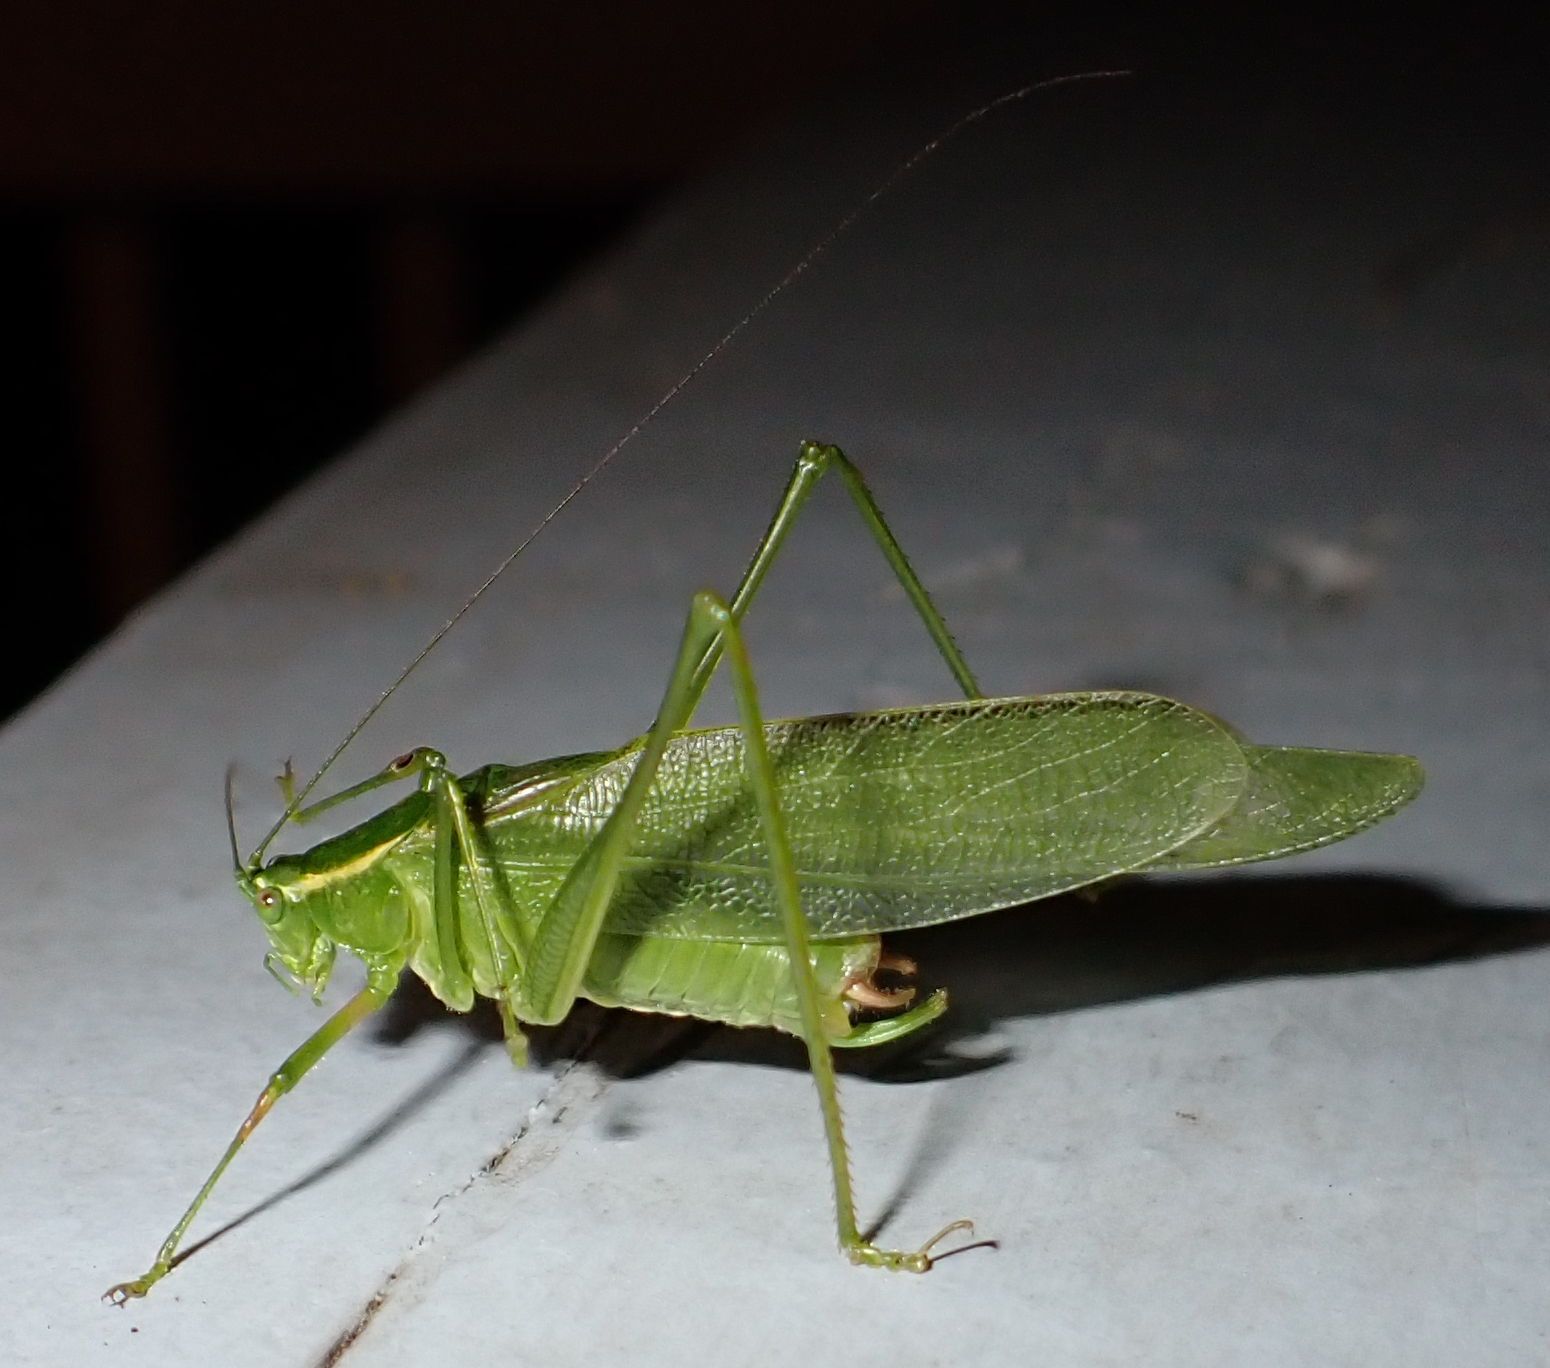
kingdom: Animalia
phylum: Arthropoda
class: Insecta
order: Orthoptera
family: Tettigoniidae
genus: Scudderia
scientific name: Scudderia septentrionalis
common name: Northern bush-katydid
